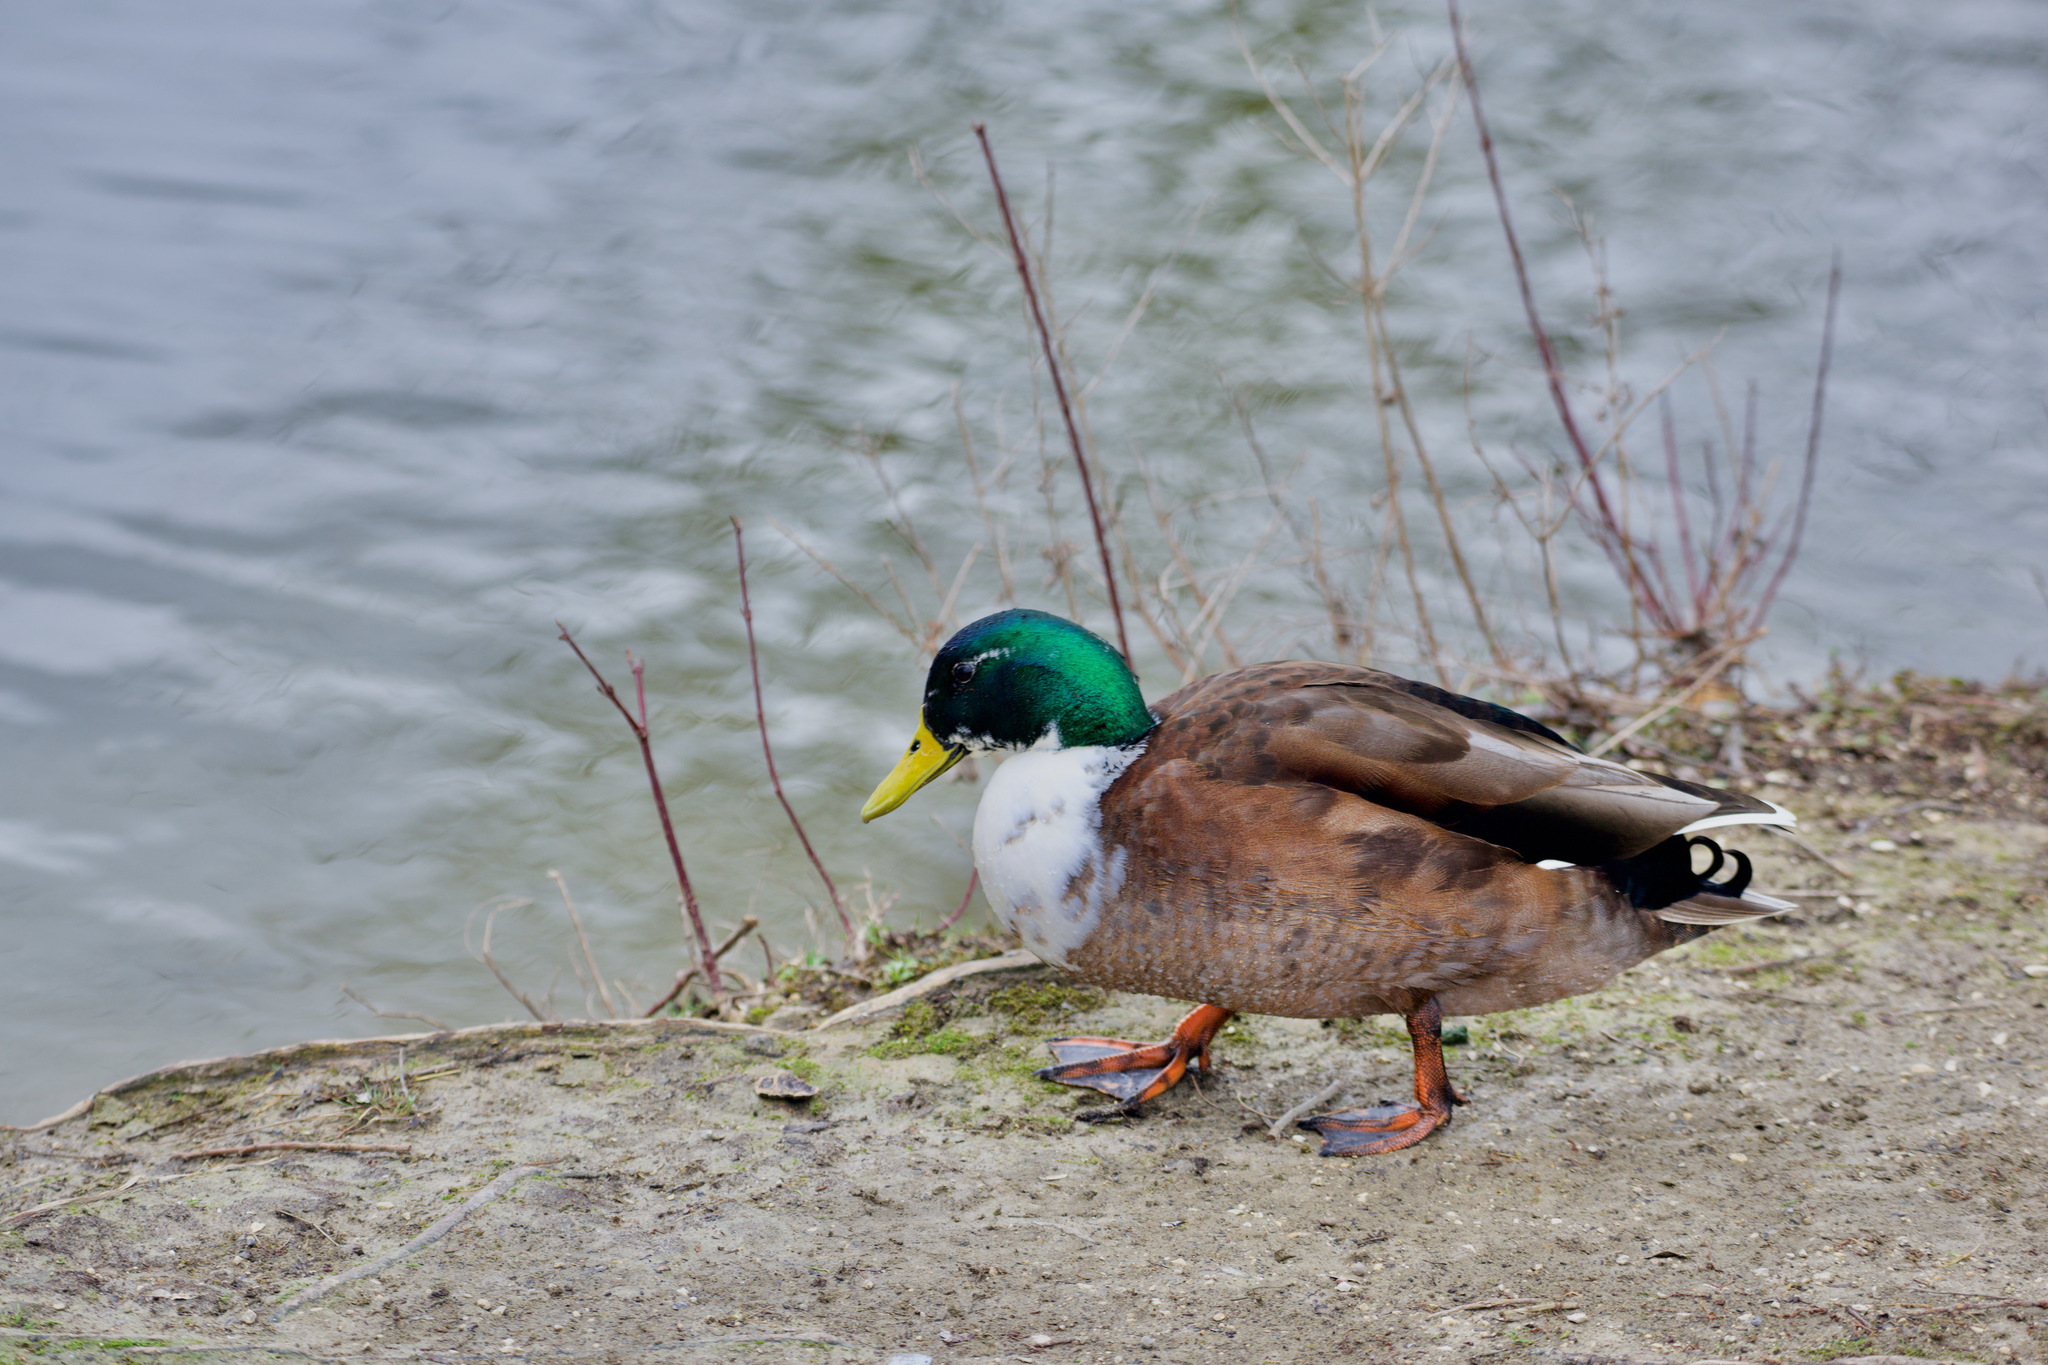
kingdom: Animalia
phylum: Chordata
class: Aves
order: Anseriformes
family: Anatidae
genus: Anas
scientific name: Anas platyrhynchos
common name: Mallard
